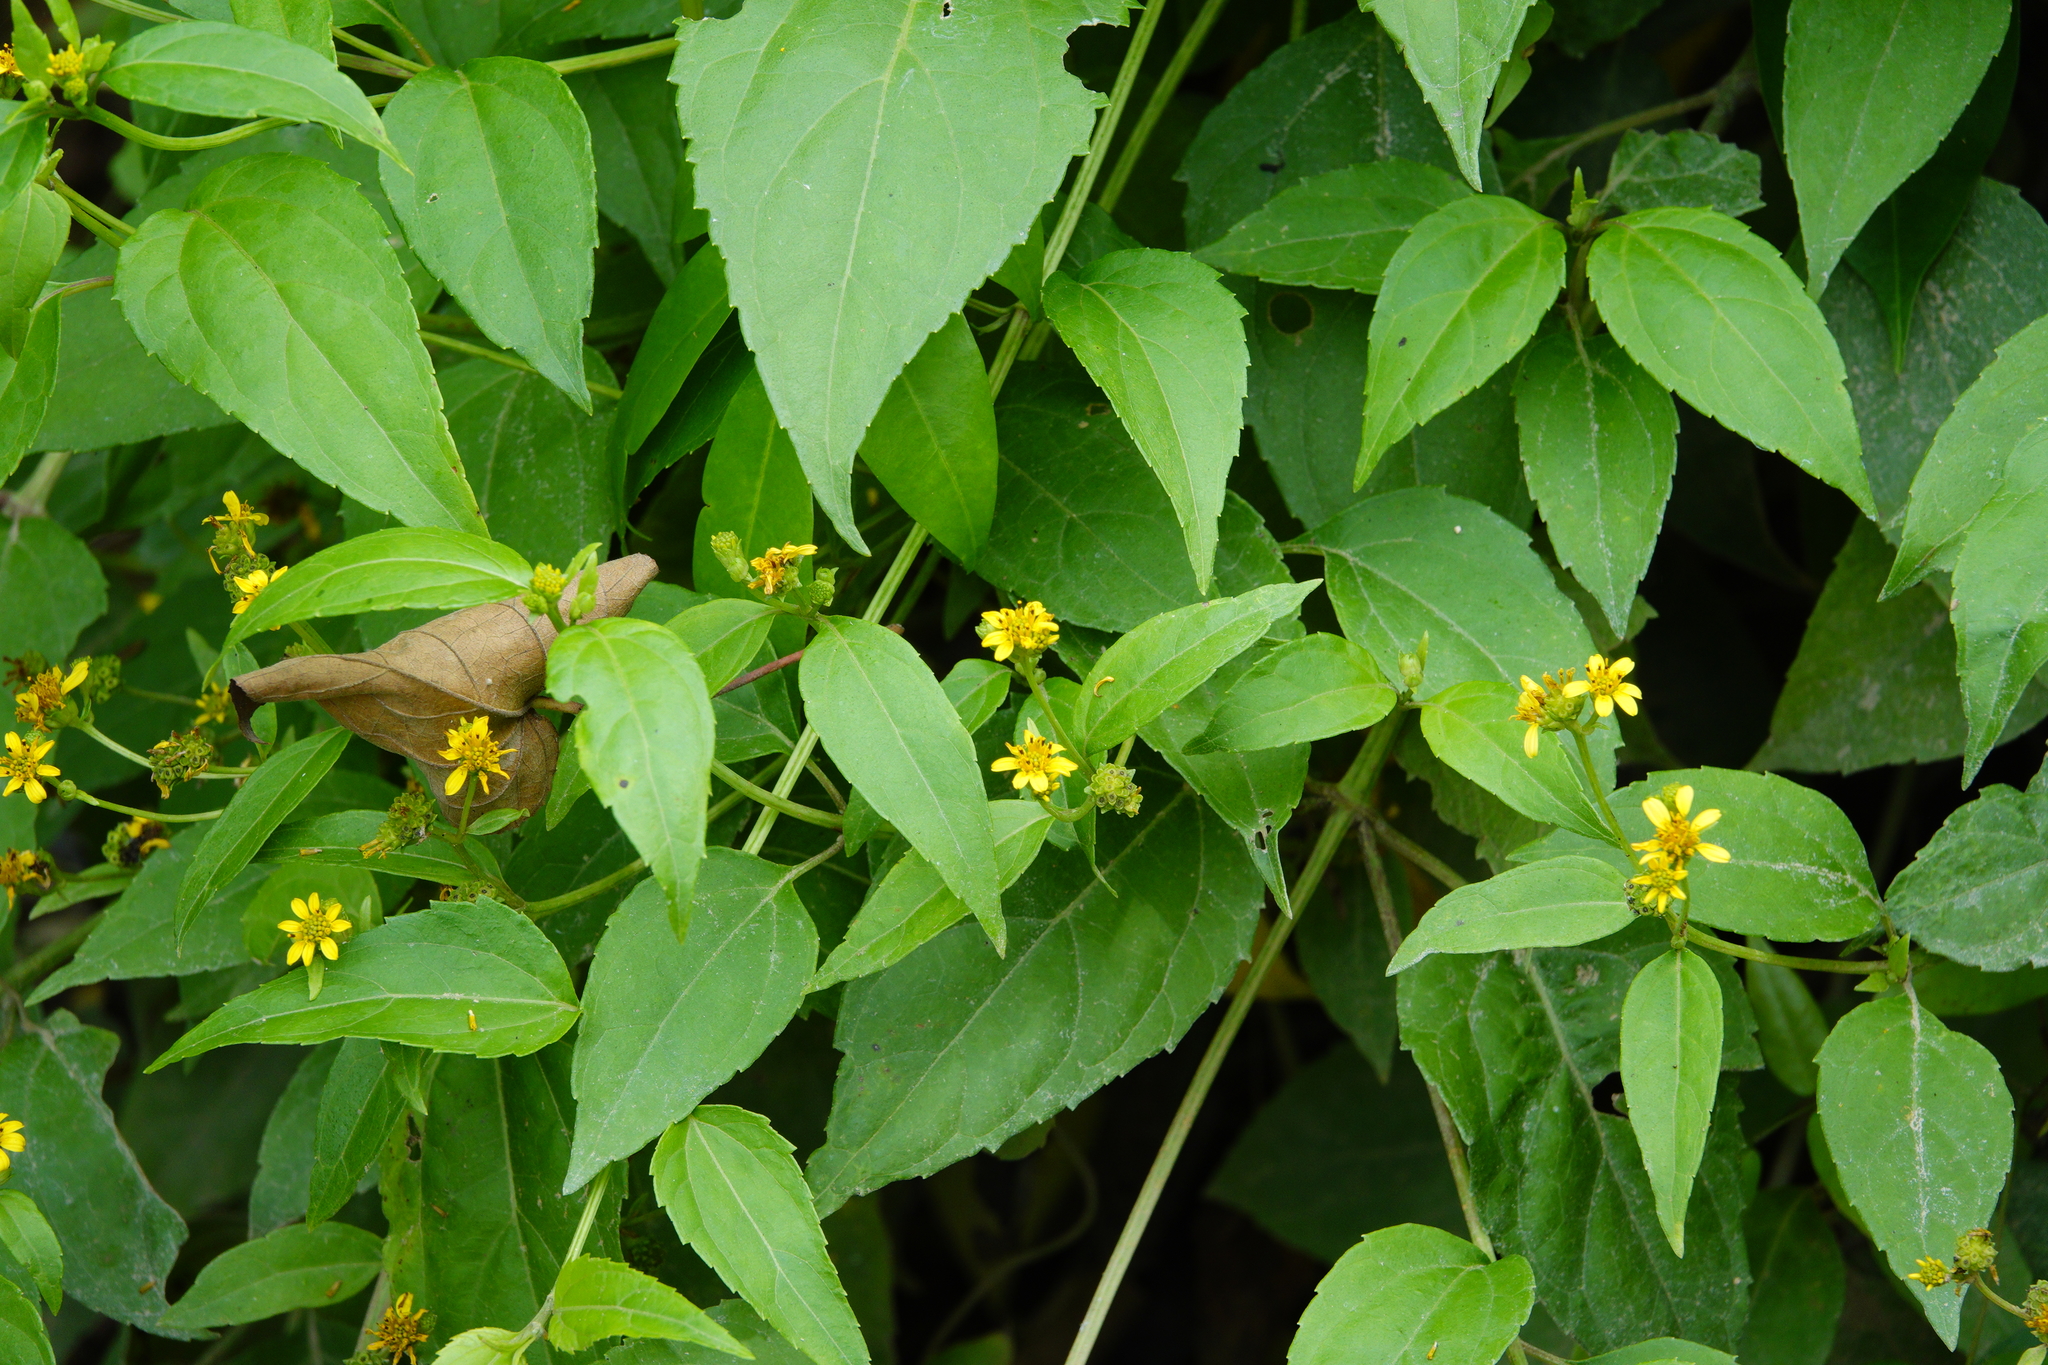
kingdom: Plantae
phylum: Tracheophyta
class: Magnoliopsida
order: Asterales
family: Asteraceae
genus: Wollastonia
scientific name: Wollastonia biflora
